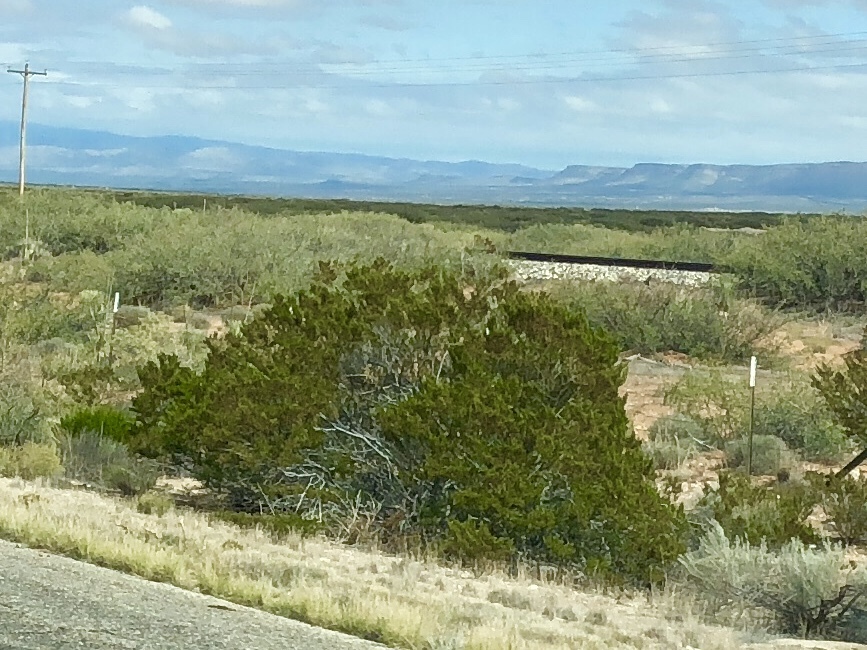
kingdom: Plantae
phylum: Tracheophyta
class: Magnoliopsida
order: Zygophyllales
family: Zygophyllaceae
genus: Larrea
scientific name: Larrea tridentata
